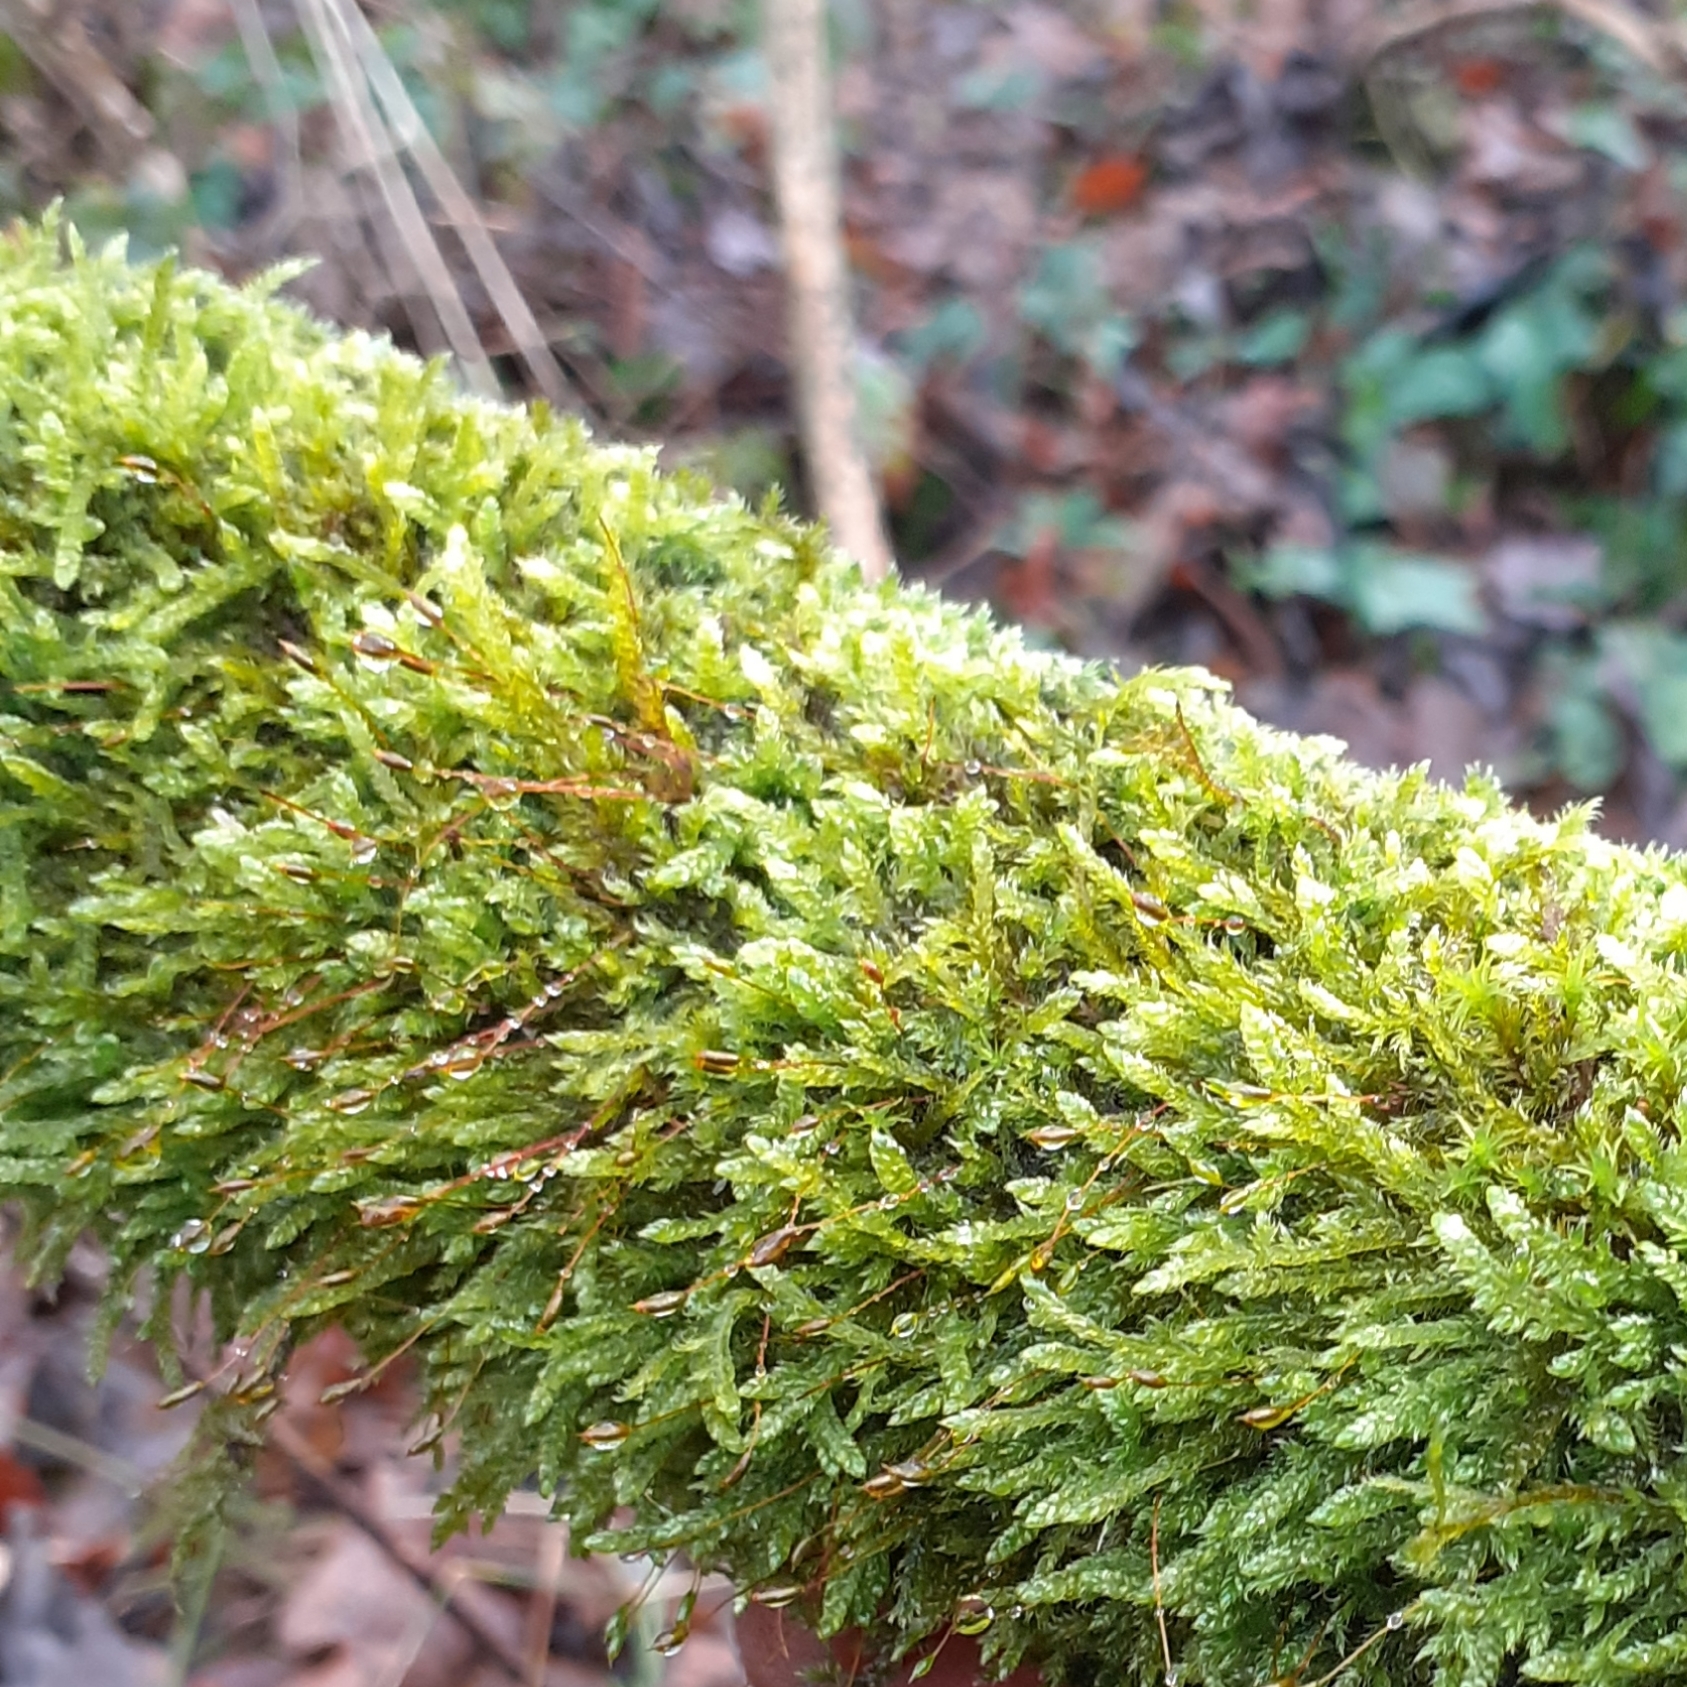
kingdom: Plantae
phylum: Bryophyta
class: Bryopsida
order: Hypnales
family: Hypnaceae
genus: Hypnum
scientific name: Hypnum cupressiforme
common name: Cypress-leaved plait-moss
